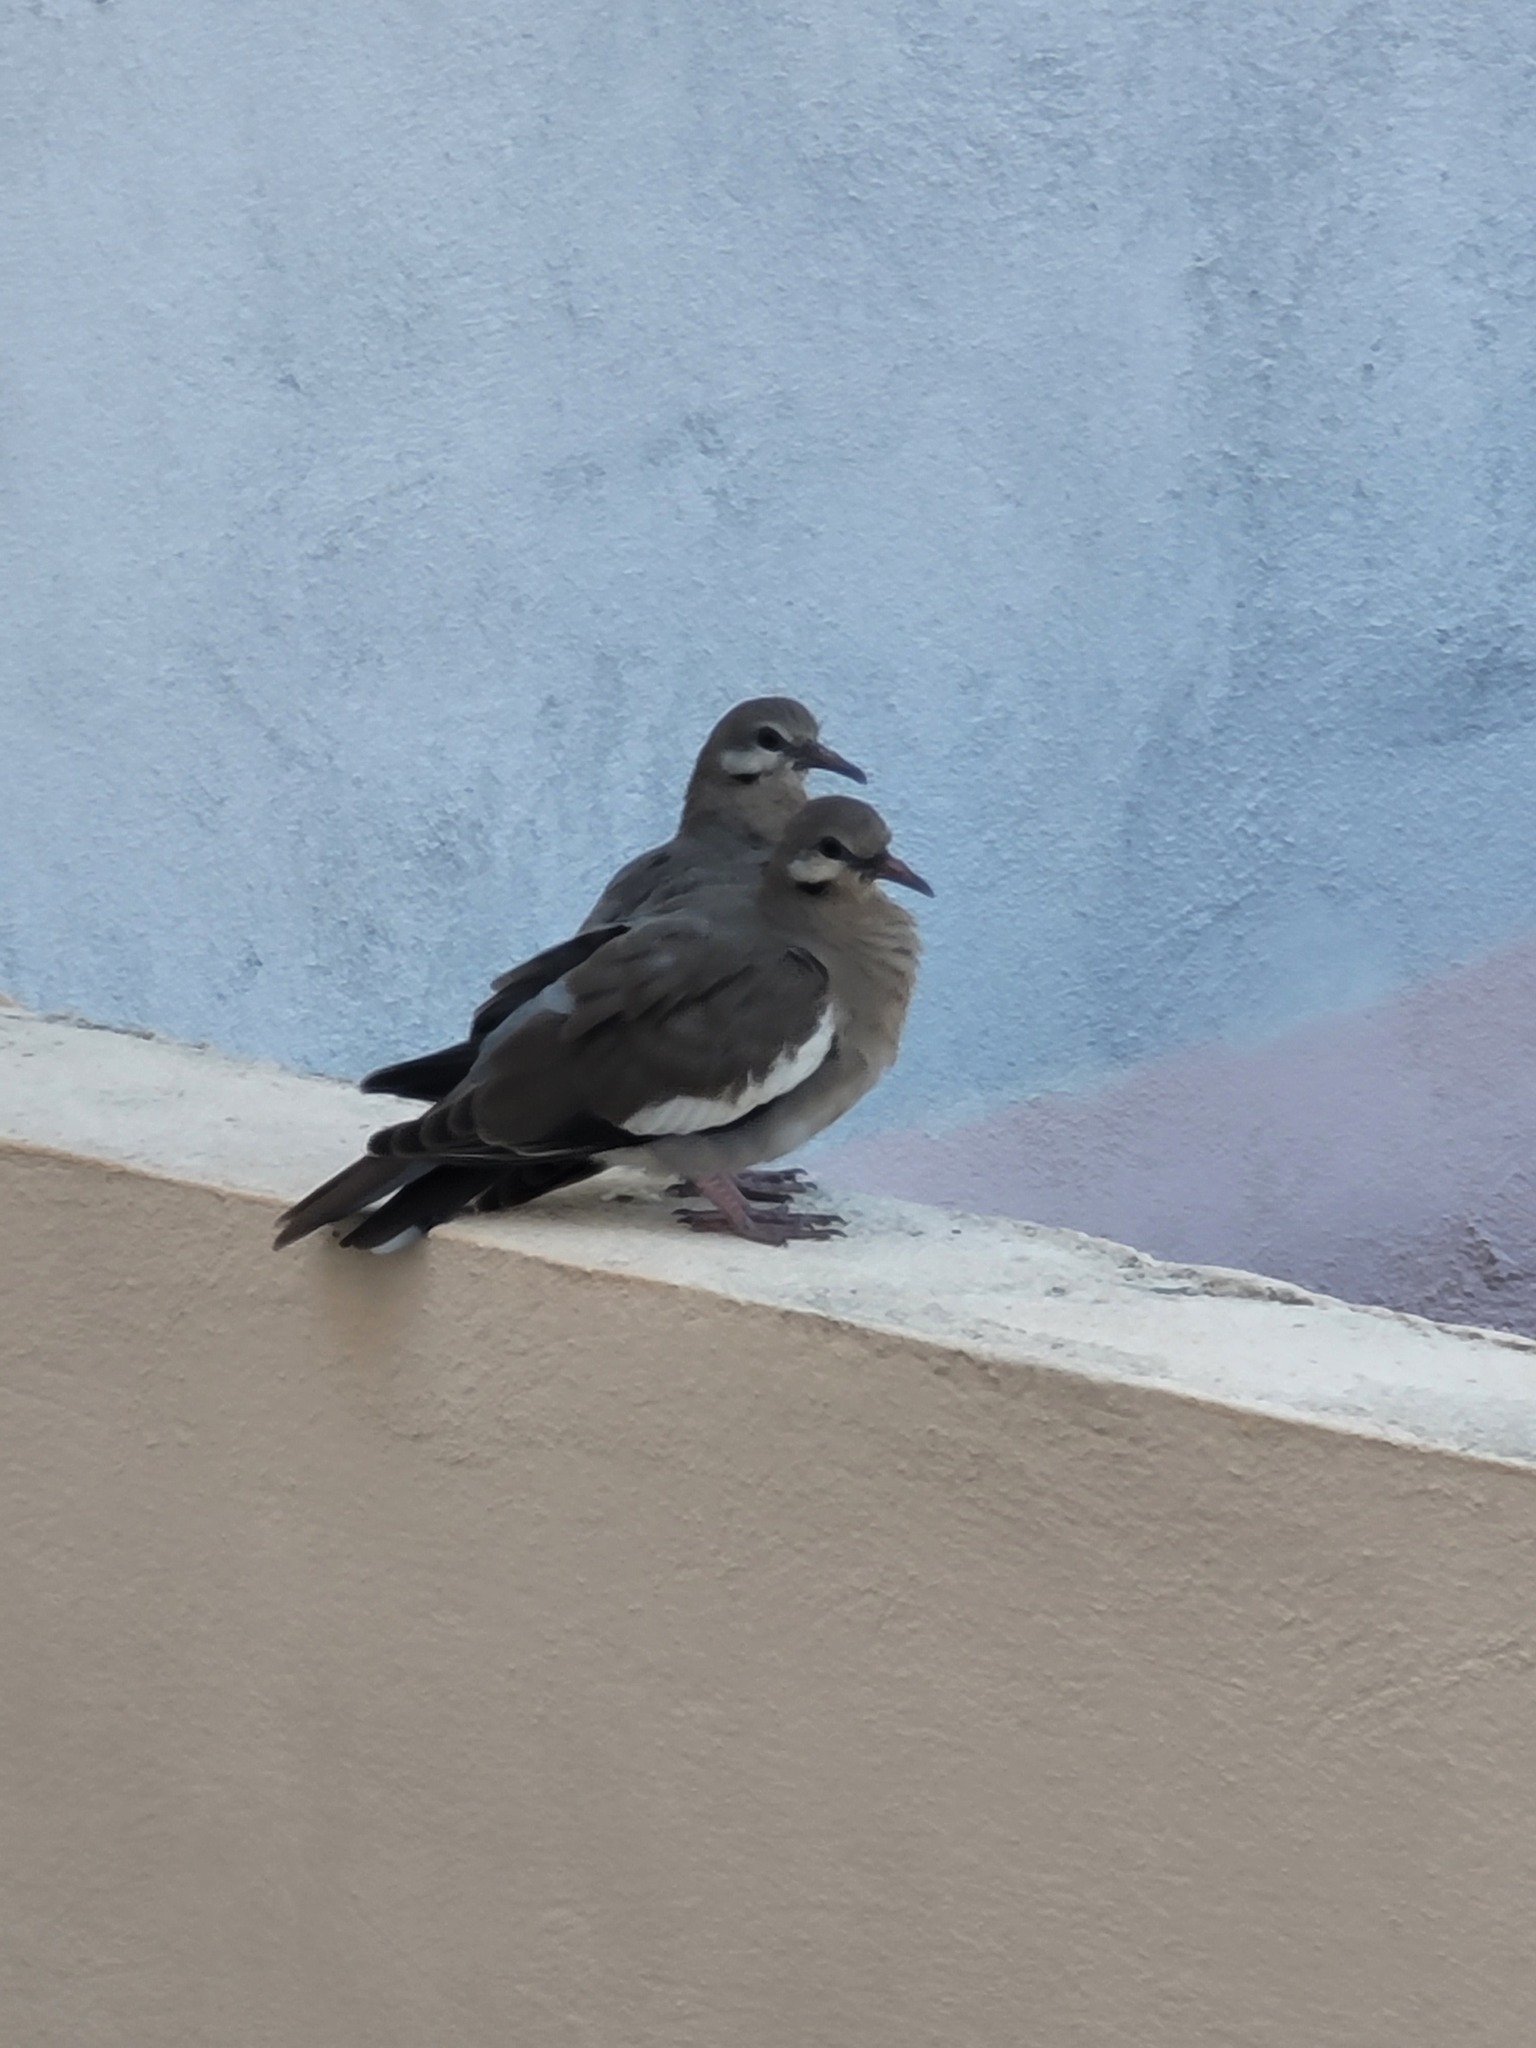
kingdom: Animalia
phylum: Chordata
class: Aves
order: Columbiformes
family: Columbidae
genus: Zenaida
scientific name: Zenaida asiatica
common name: White-winged dove
